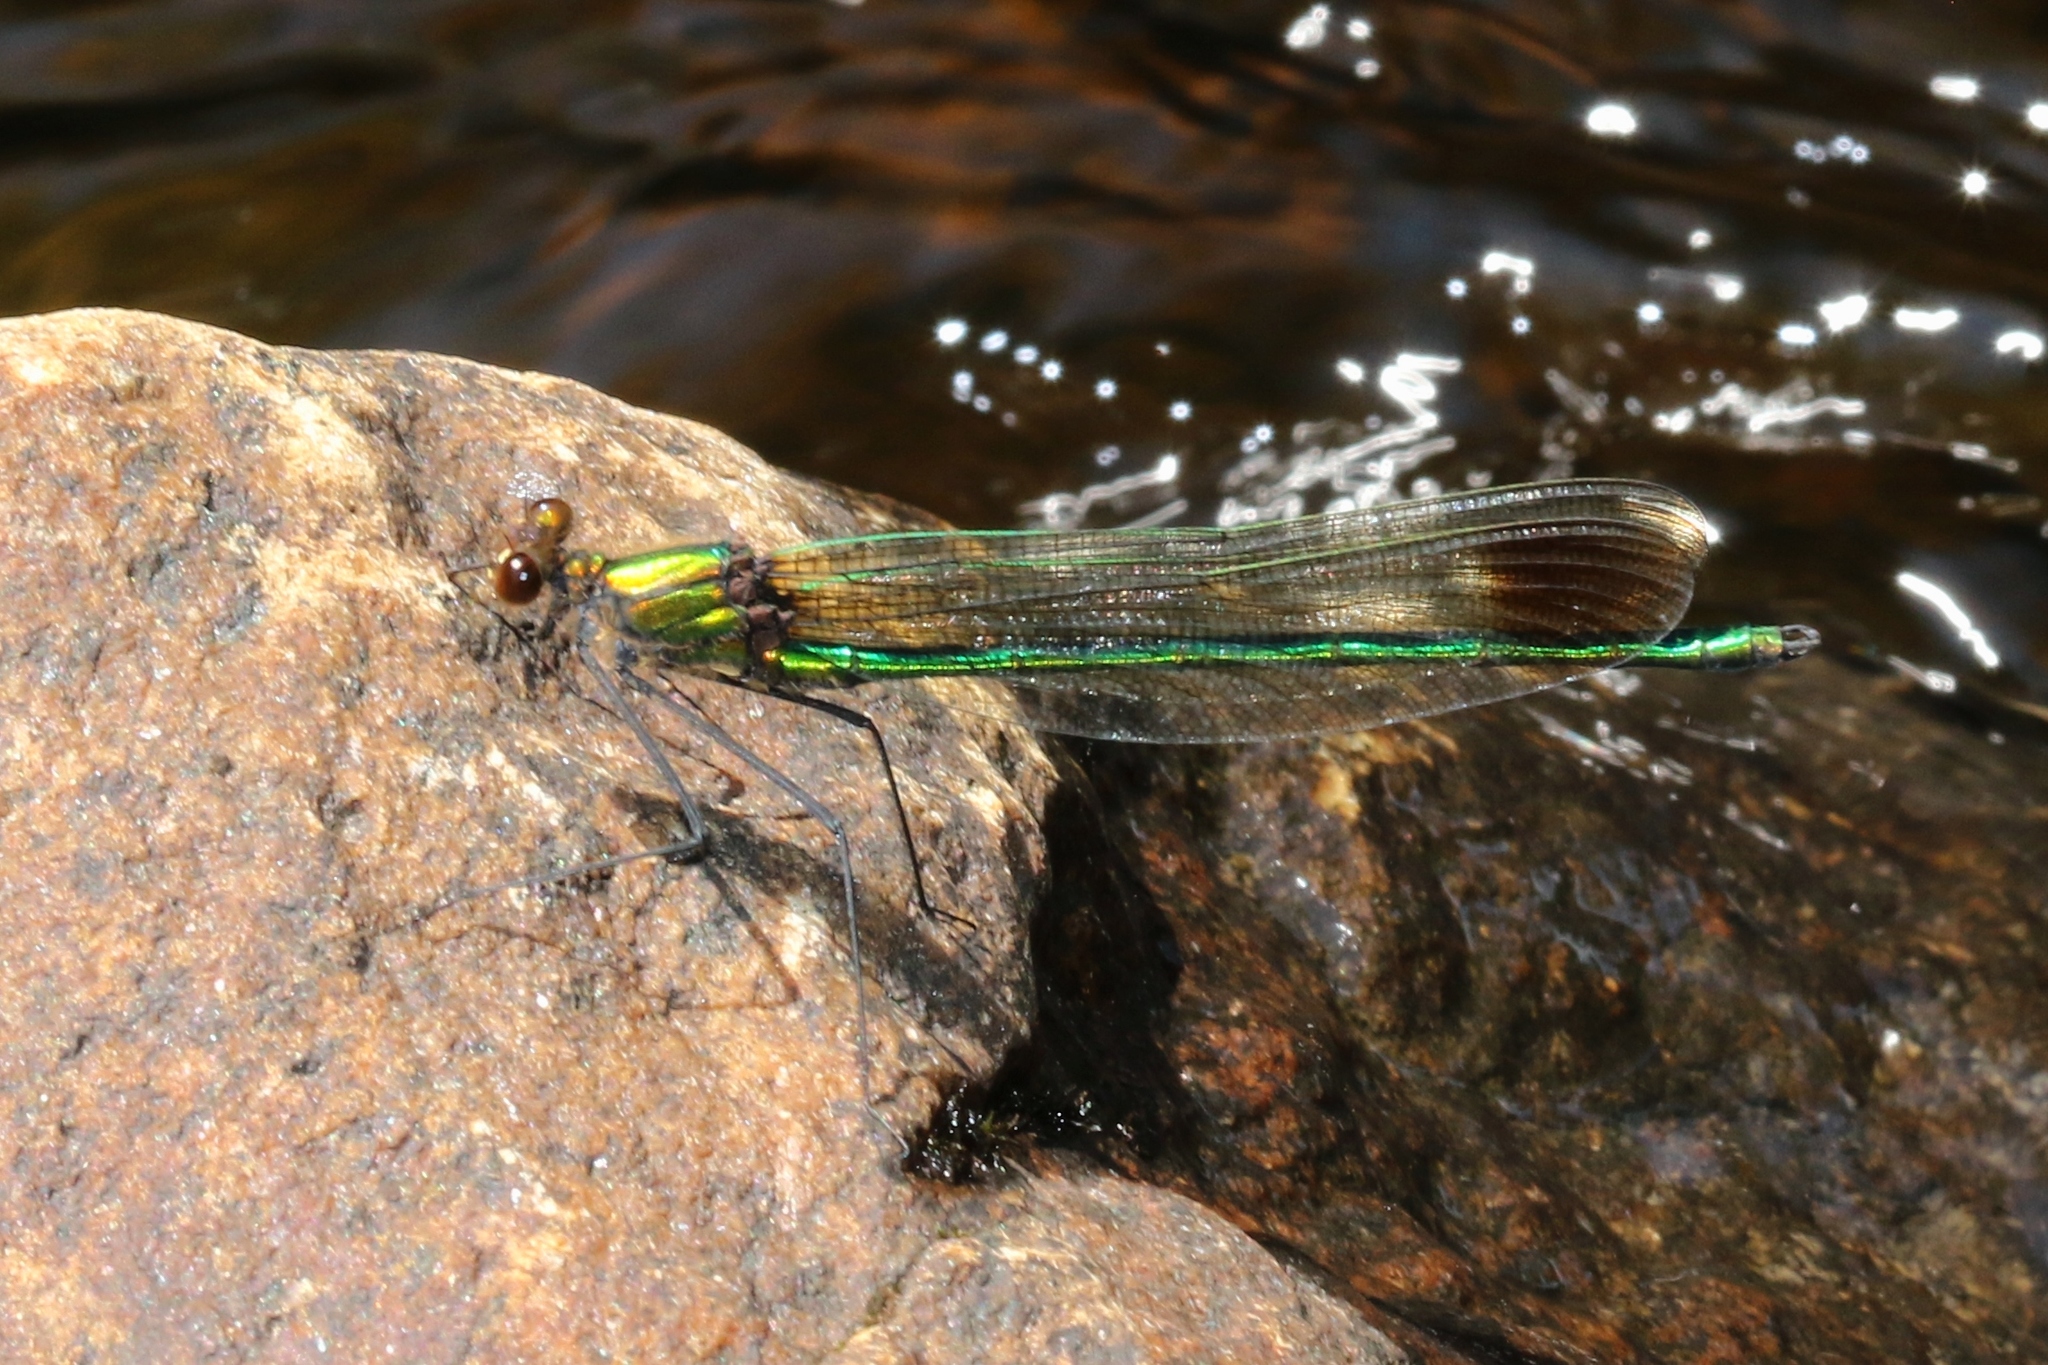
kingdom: Animalia
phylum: Arthropoda
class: Insecta
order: Odonata
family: Calopterygidae
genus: Calopteryx
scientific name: Calopteryx amata
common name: Superb jewelwing
